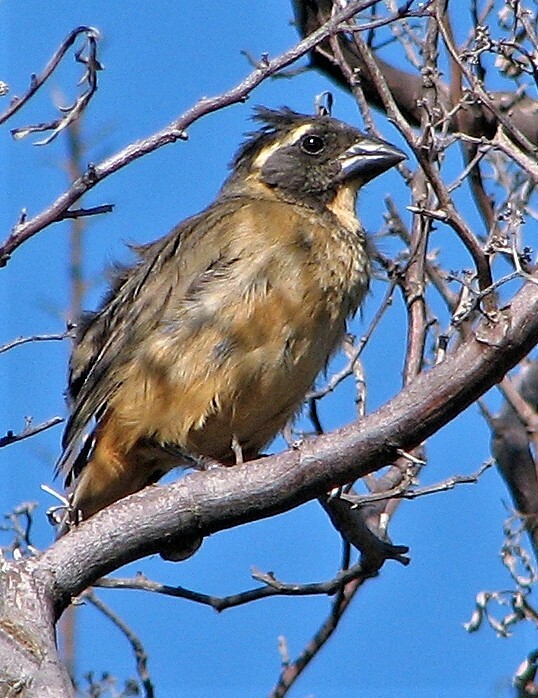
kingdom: Animalia
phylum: Chordata
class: Aves
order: Passeriformes
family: Thraupidae
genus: Saltator
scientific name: Saltator aurantiirostris
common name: Golden-billed saltator
